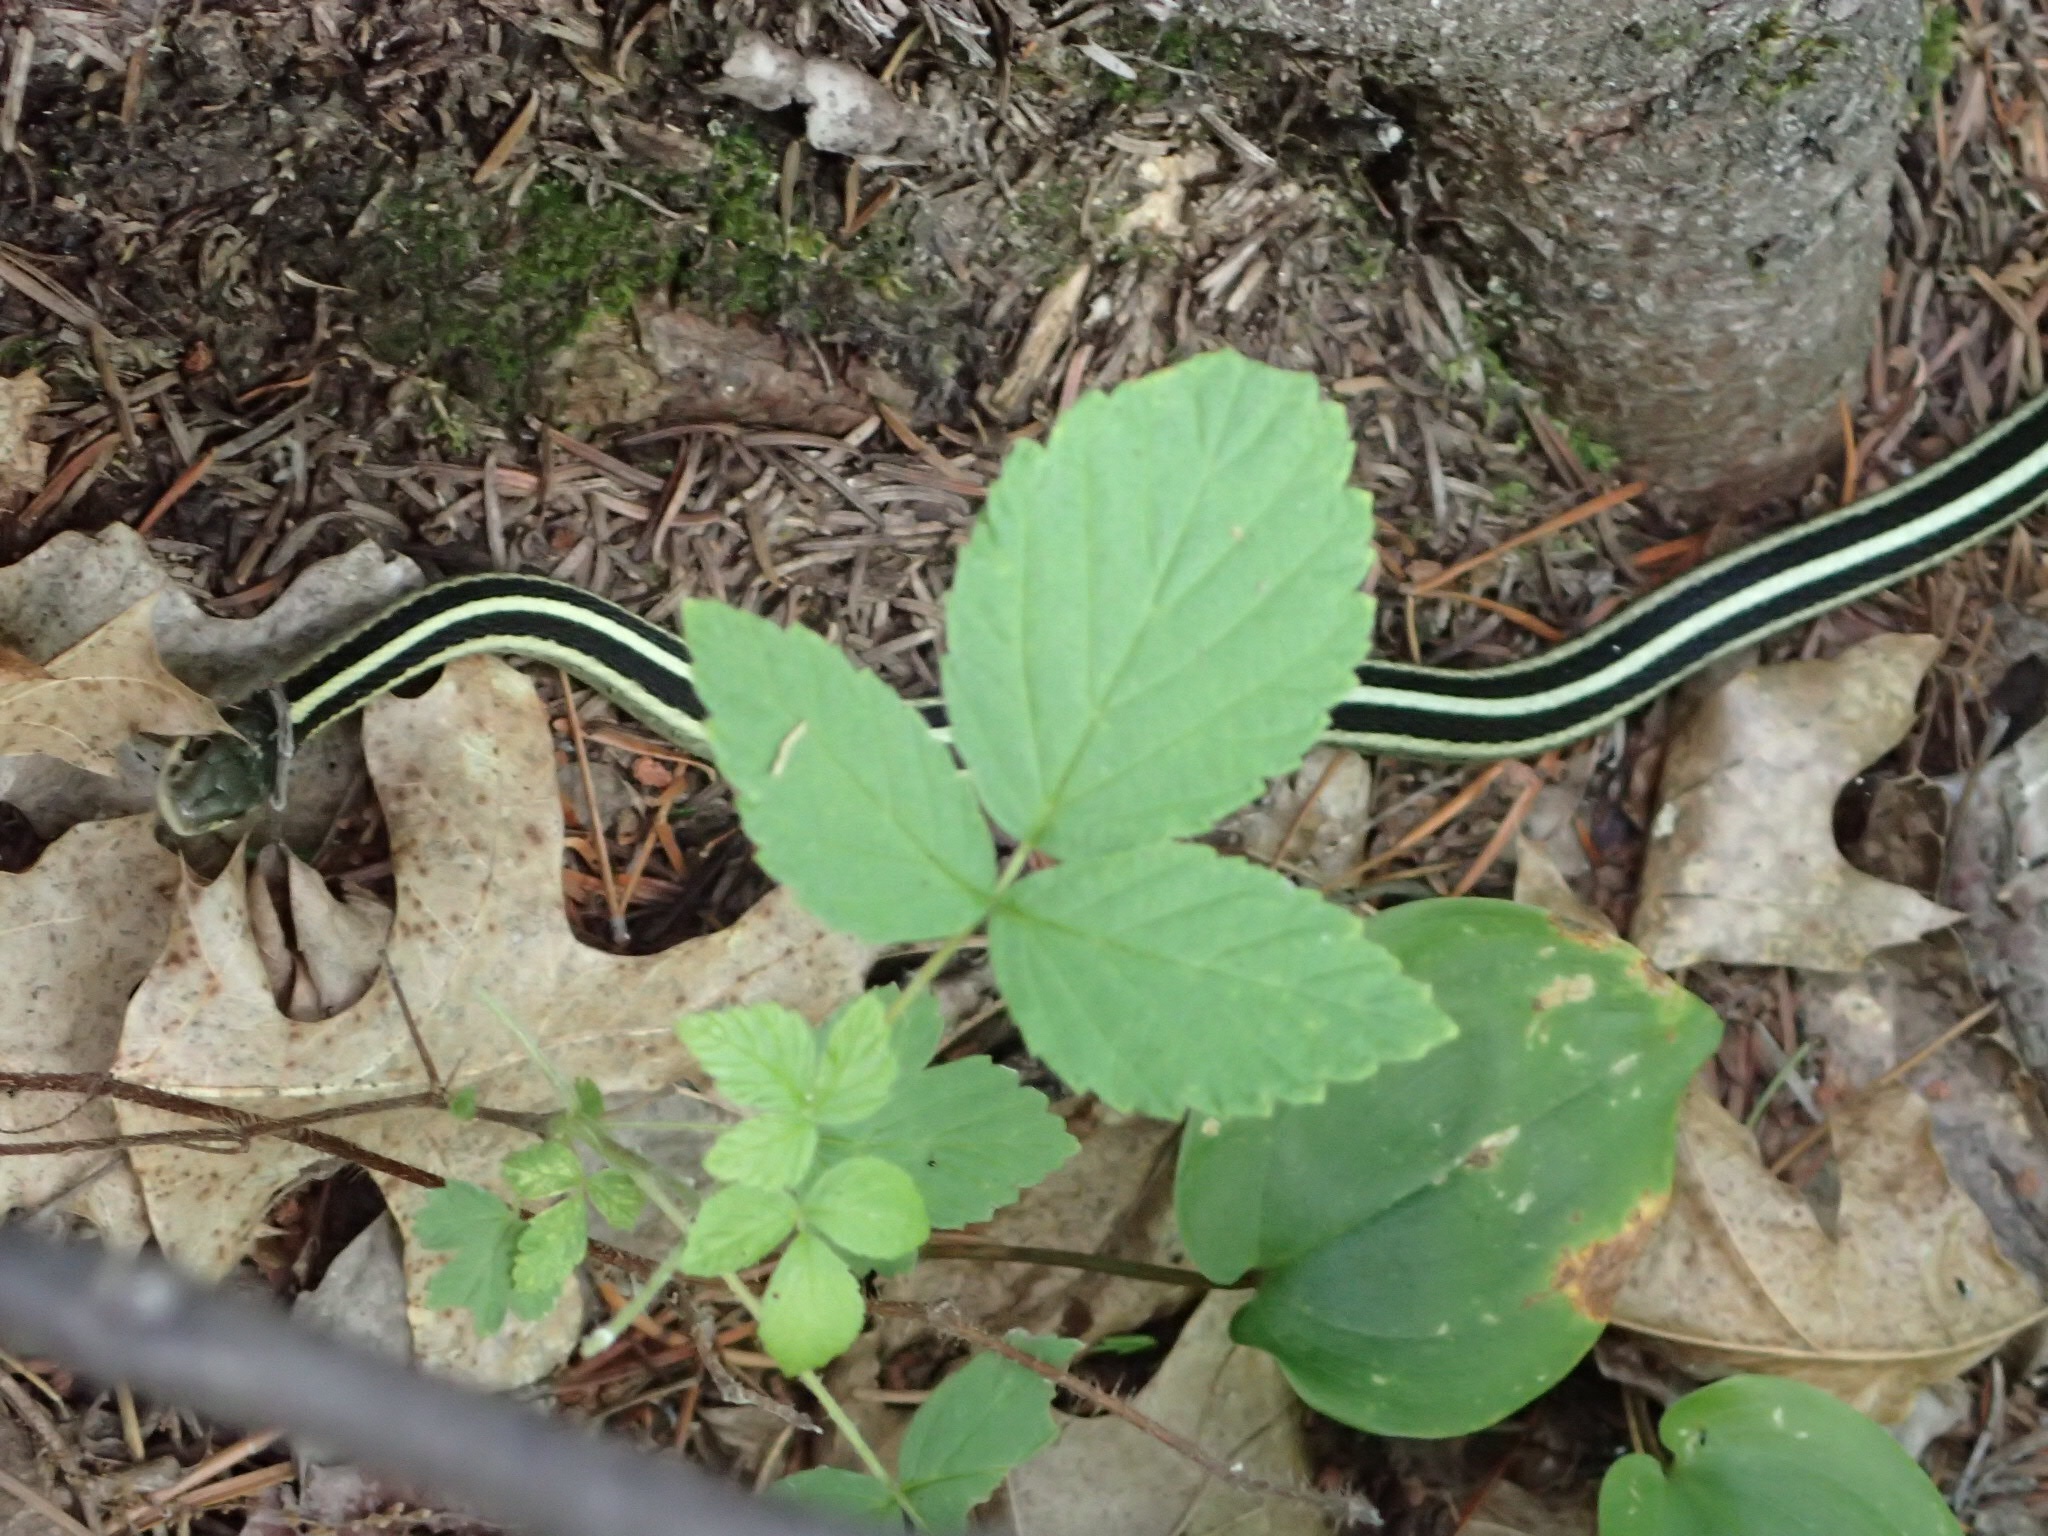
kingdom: Animalia
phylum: Chordata
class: Squamata
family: Colubridae
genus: Thamnophis
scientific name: Thamnophis sirtalis
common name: Common garter snake
